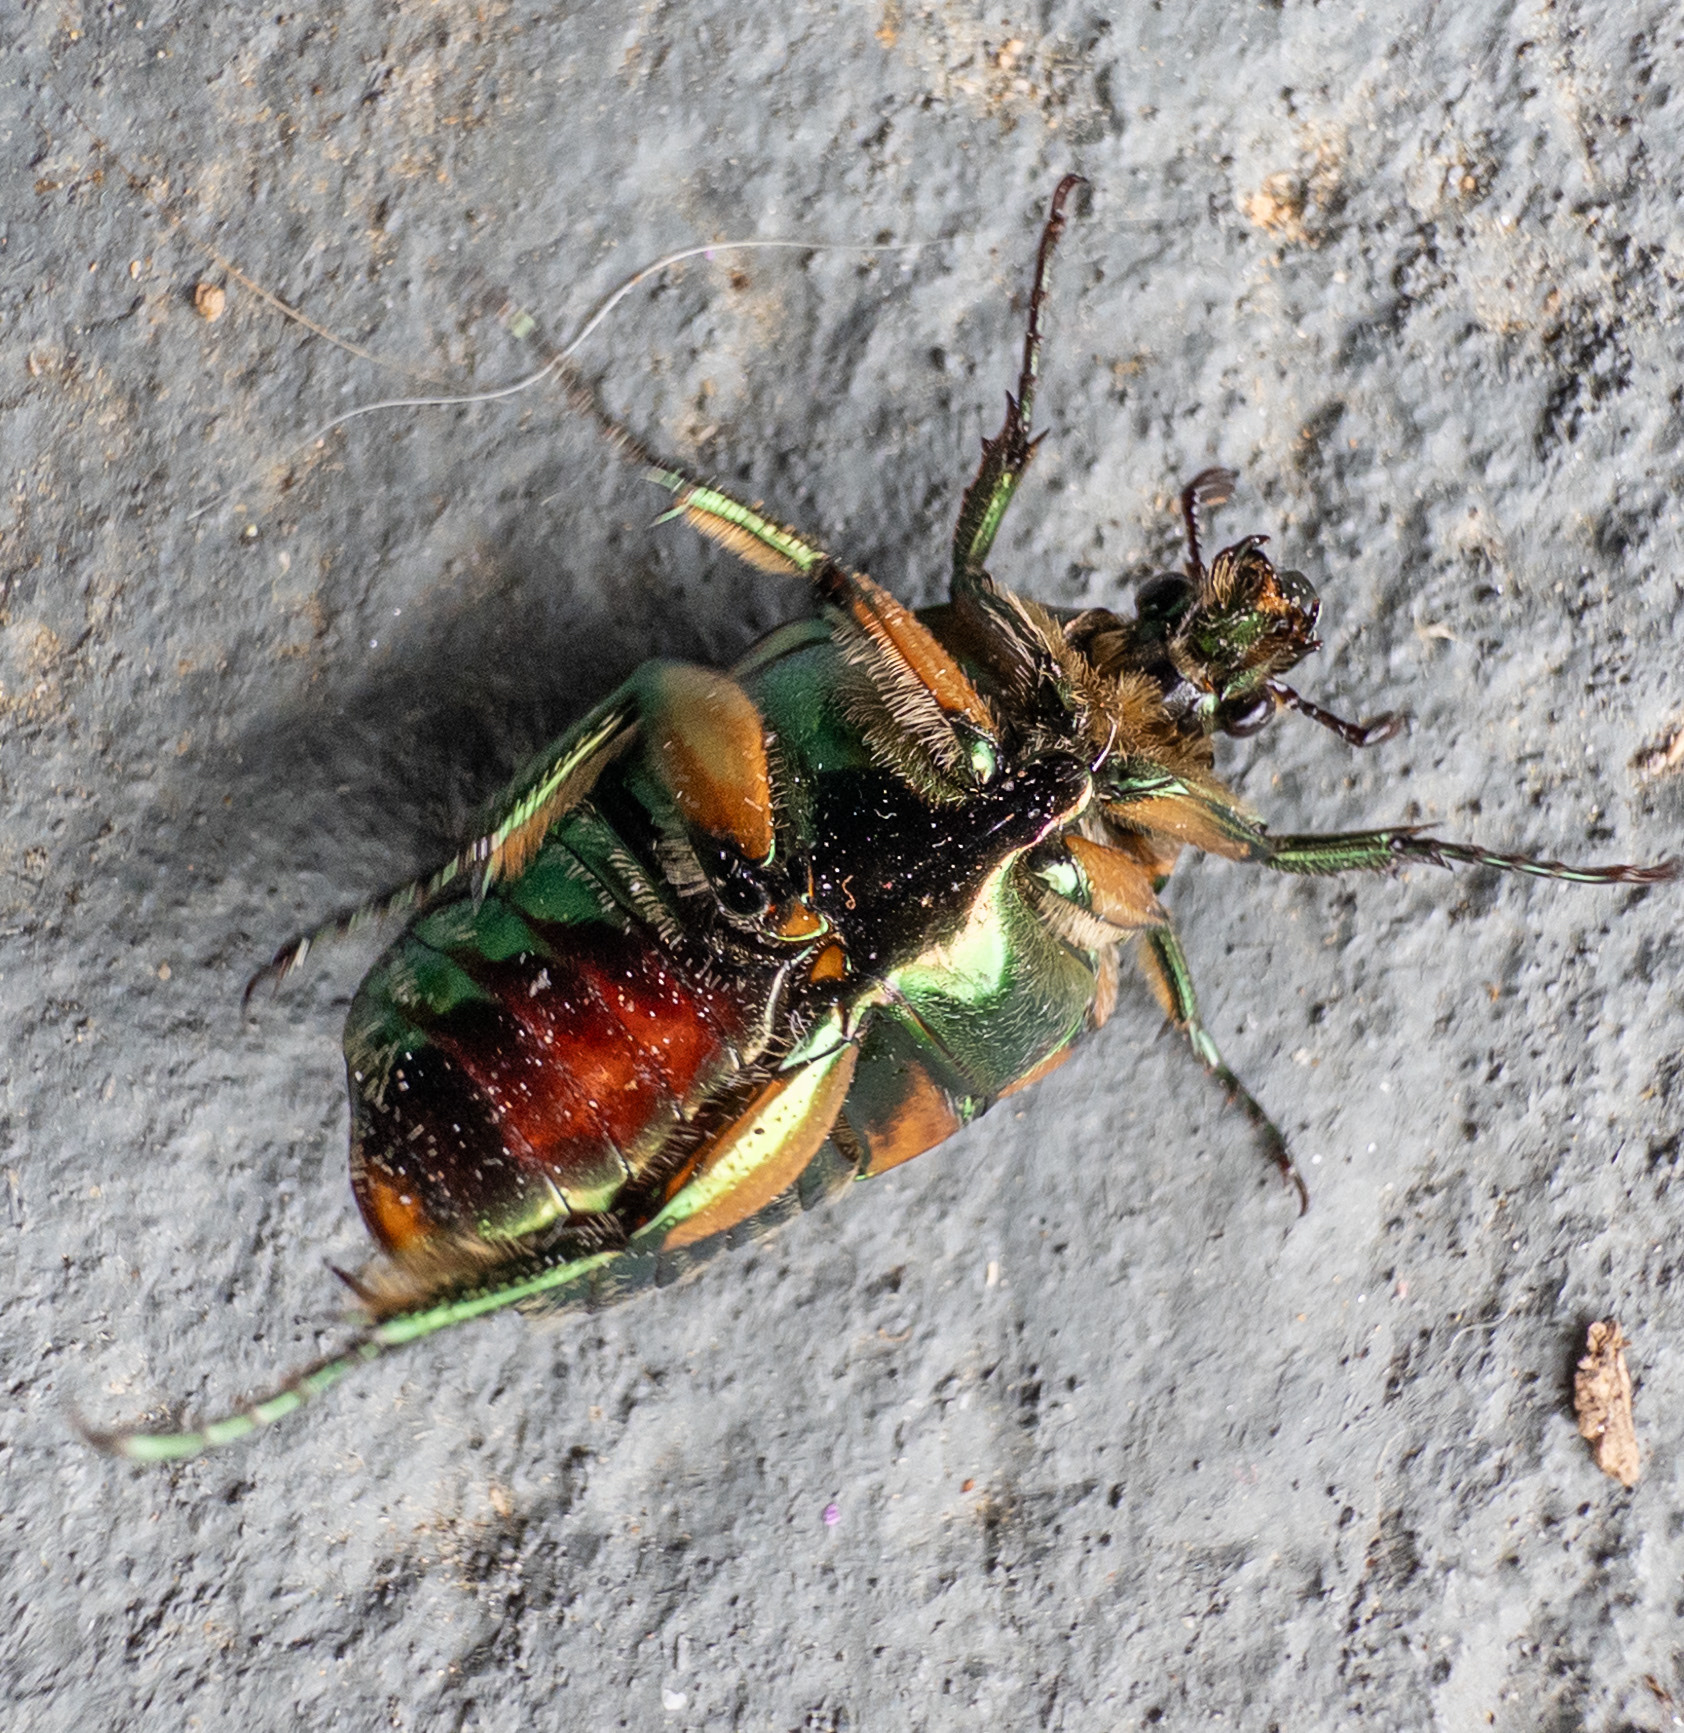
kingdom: Animalia
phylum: Arthropoda
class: Insecta
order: Coleoptera
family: Scarabaeidae
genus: Cotinis
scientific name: Cotinis nitida
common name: Common green june beetle
